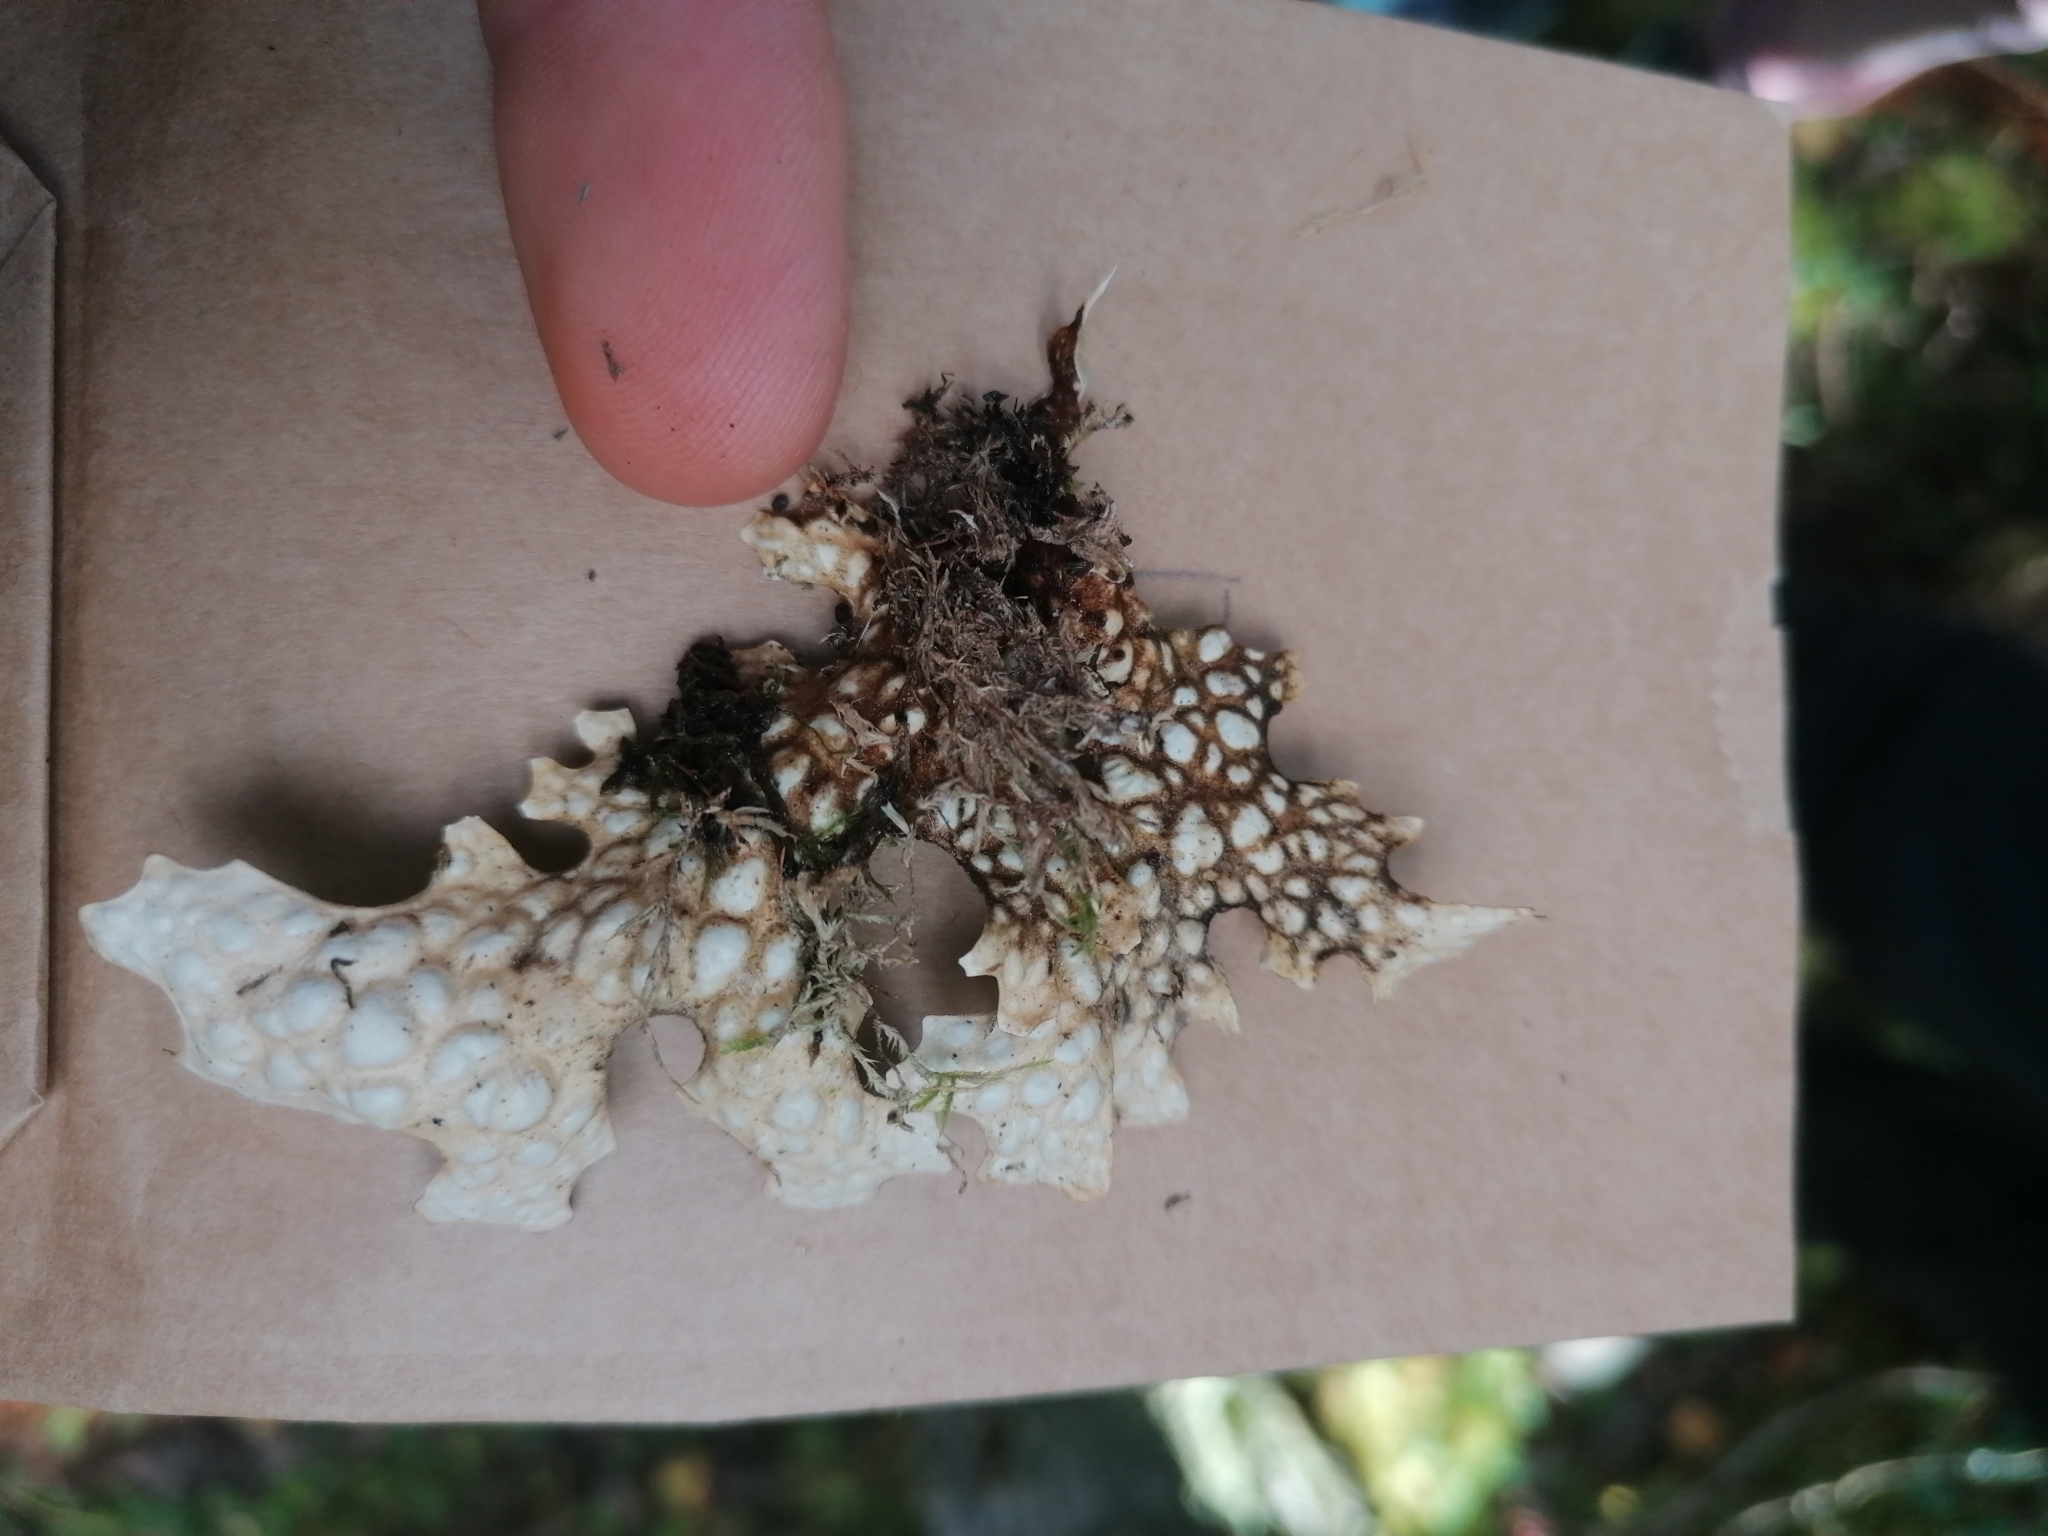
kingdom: Fungi
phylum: Ascomycota
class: Lecanoromycetes
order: Peltigerales
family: Lobariaceae
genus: Lobaria
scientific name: Lobaria pulmonaria
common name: Lungwort
